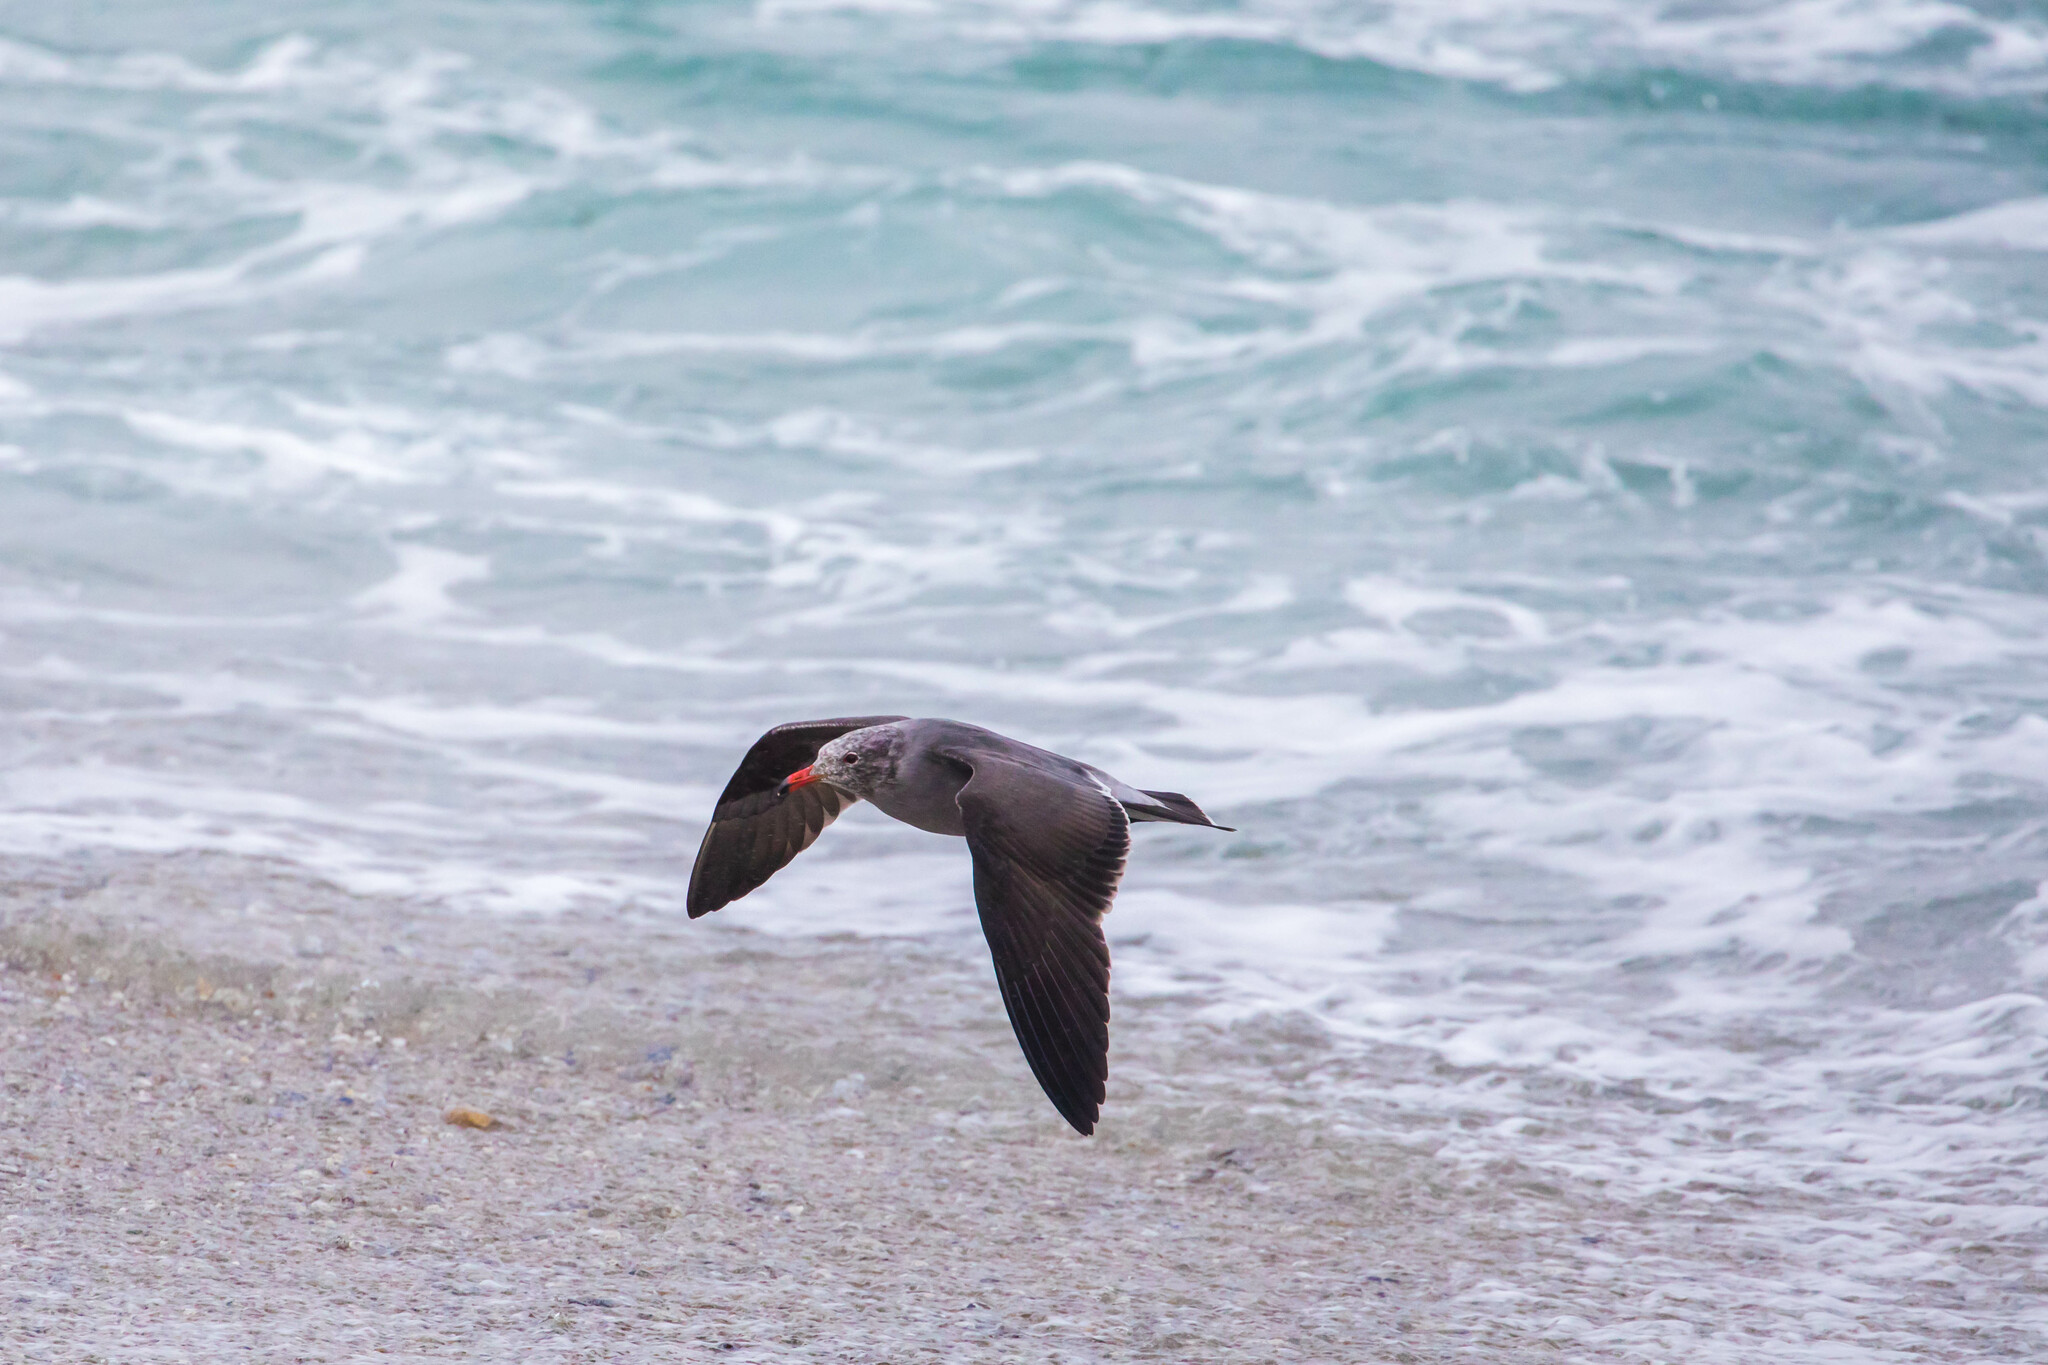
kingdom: Animalia
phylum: Chordata
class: Aves
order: Charadriiformes
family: Laridae
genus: Larus
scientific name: Larus heermanni
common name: Heermann's gull
